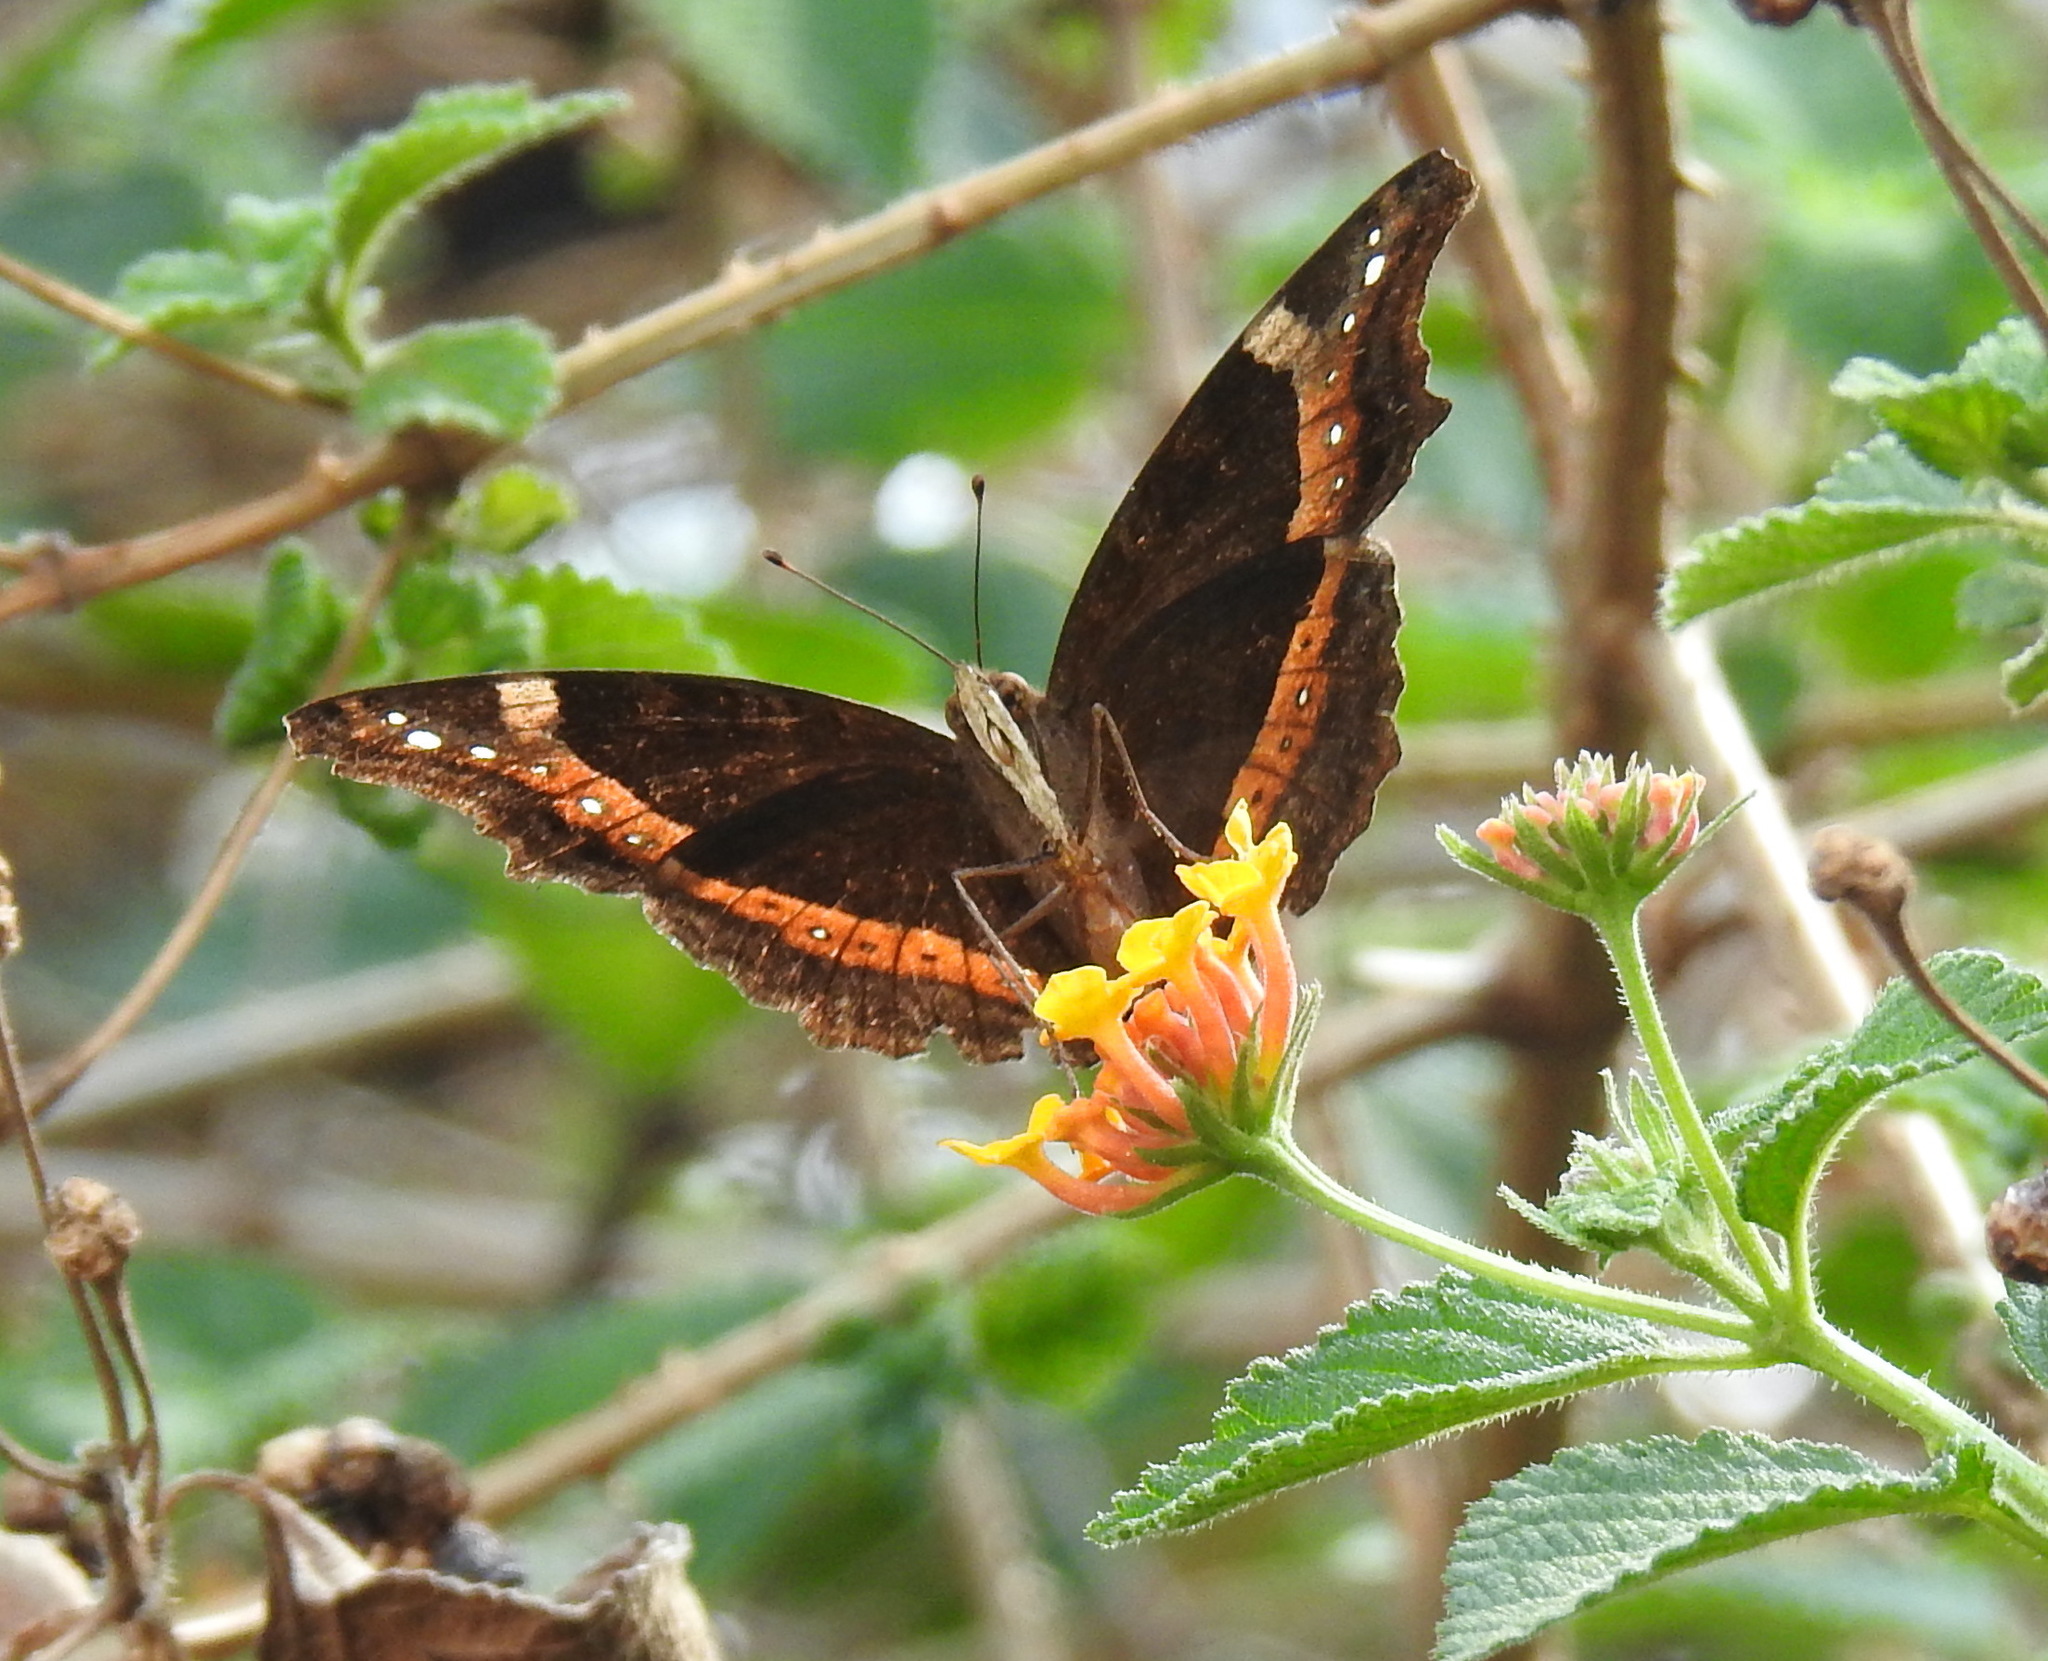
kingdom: Animalia
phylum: Arthropoda
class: Insecta
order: Lepidoptera
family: Nymphalidae
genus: Junonia
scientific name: Junonia archesia
